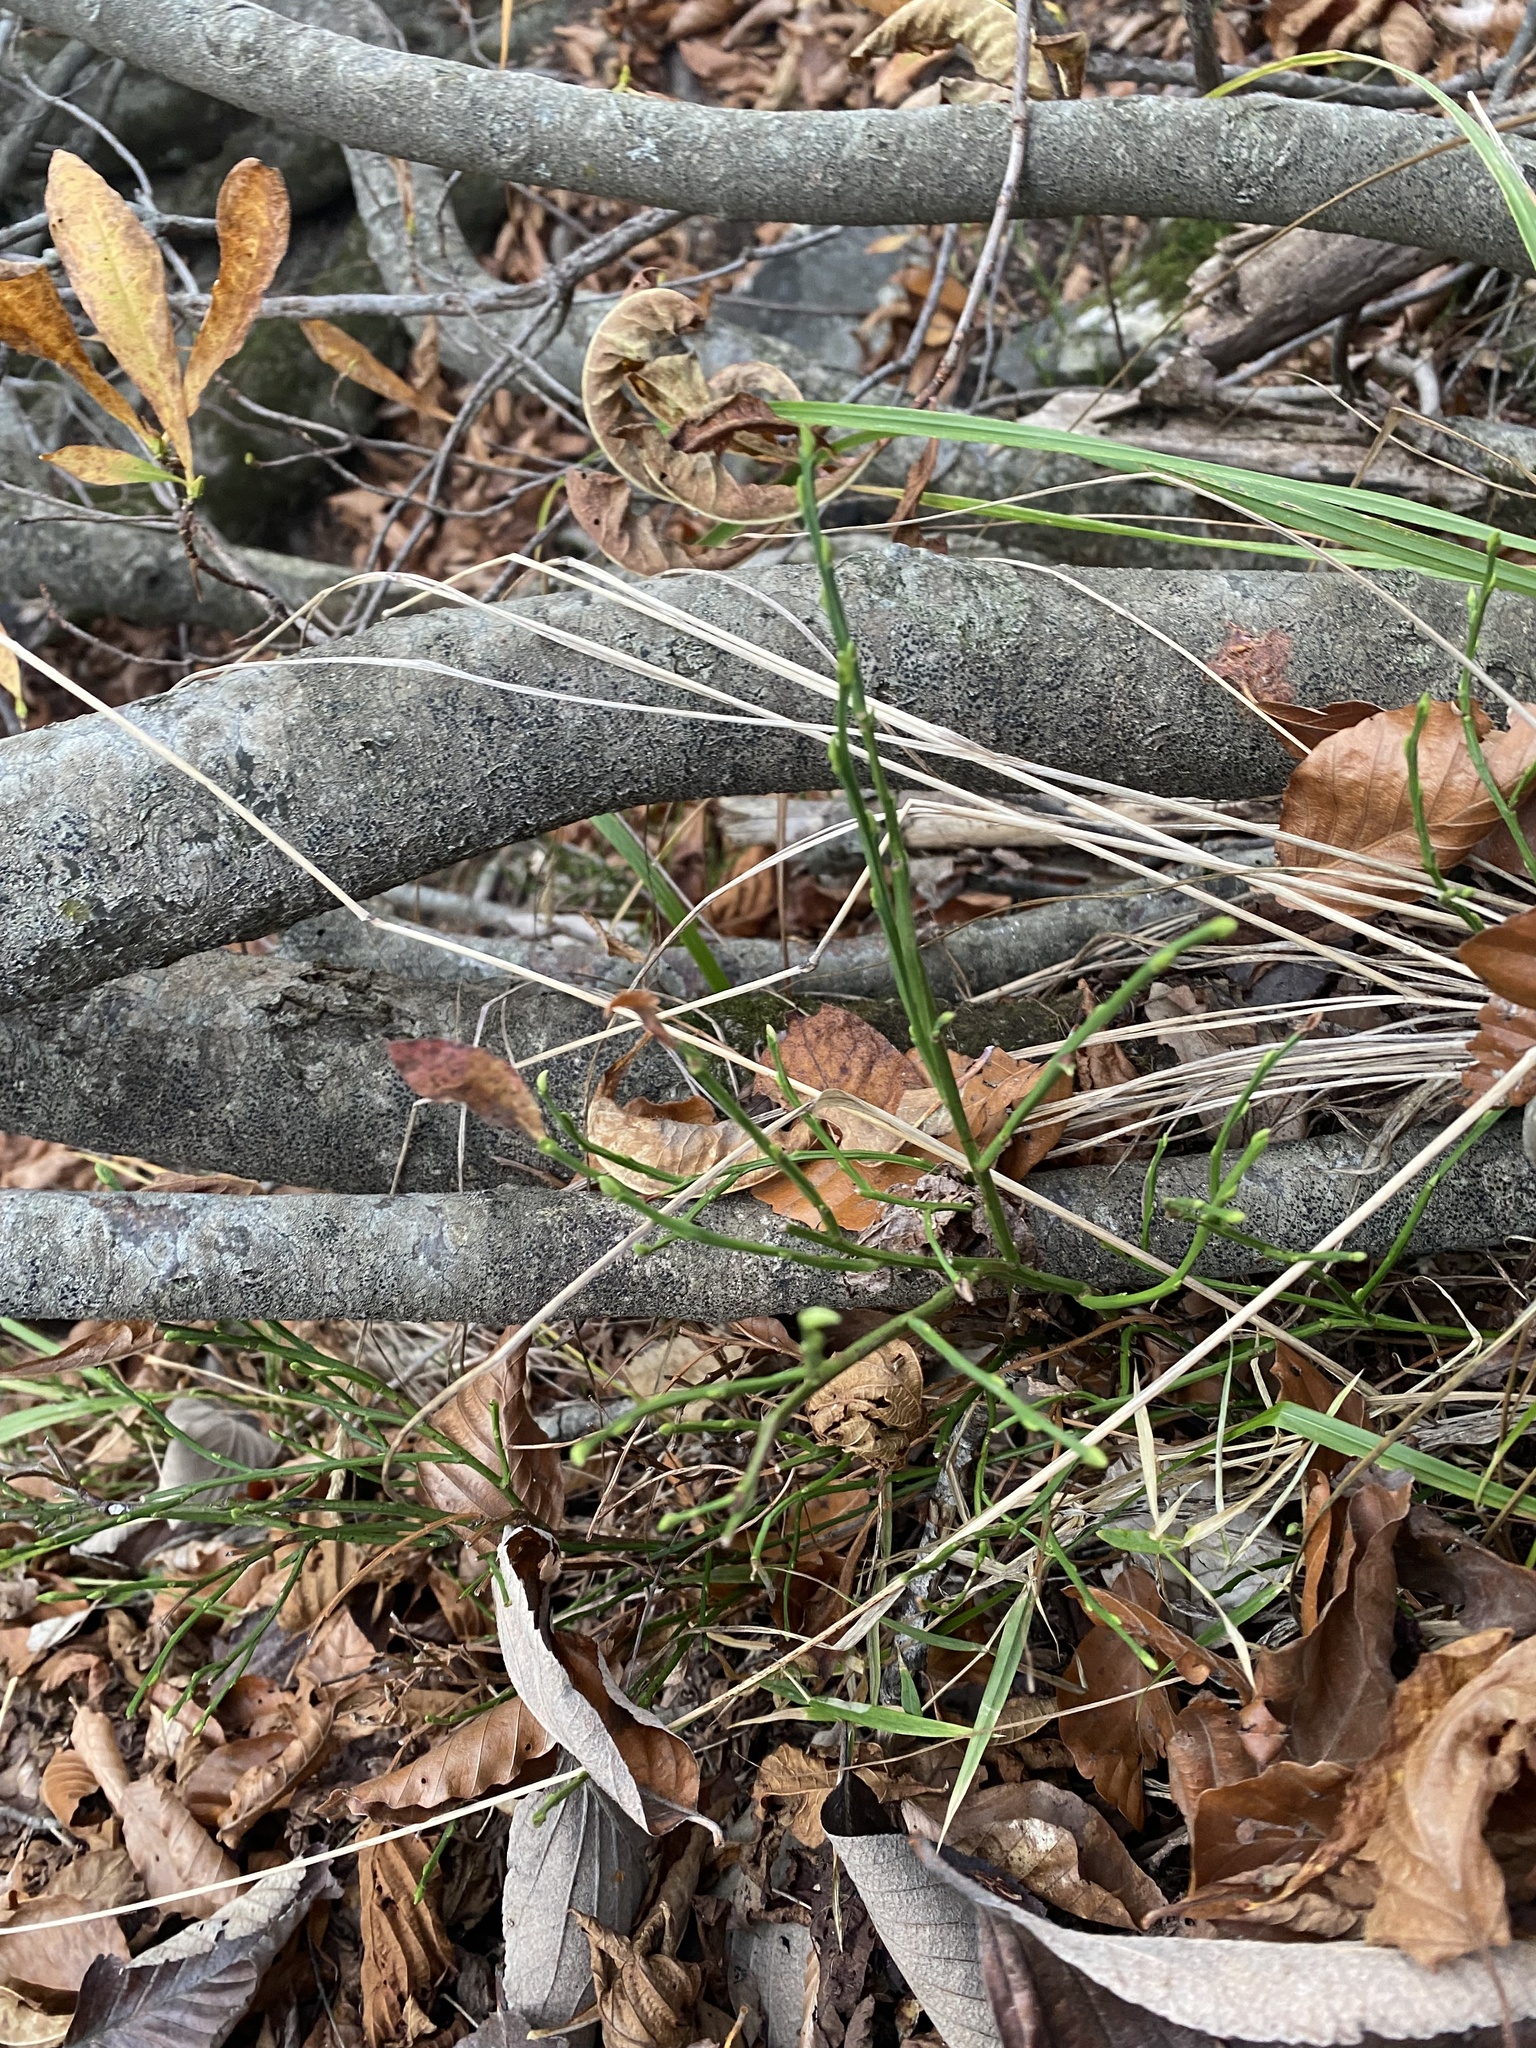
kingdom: Plantae
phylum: Tracheophyta
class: Magnoliopsida
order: Ericales
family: Ericaceae
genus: Vaccinium
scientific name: Vaccinium myrtillus
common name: Bilberry
